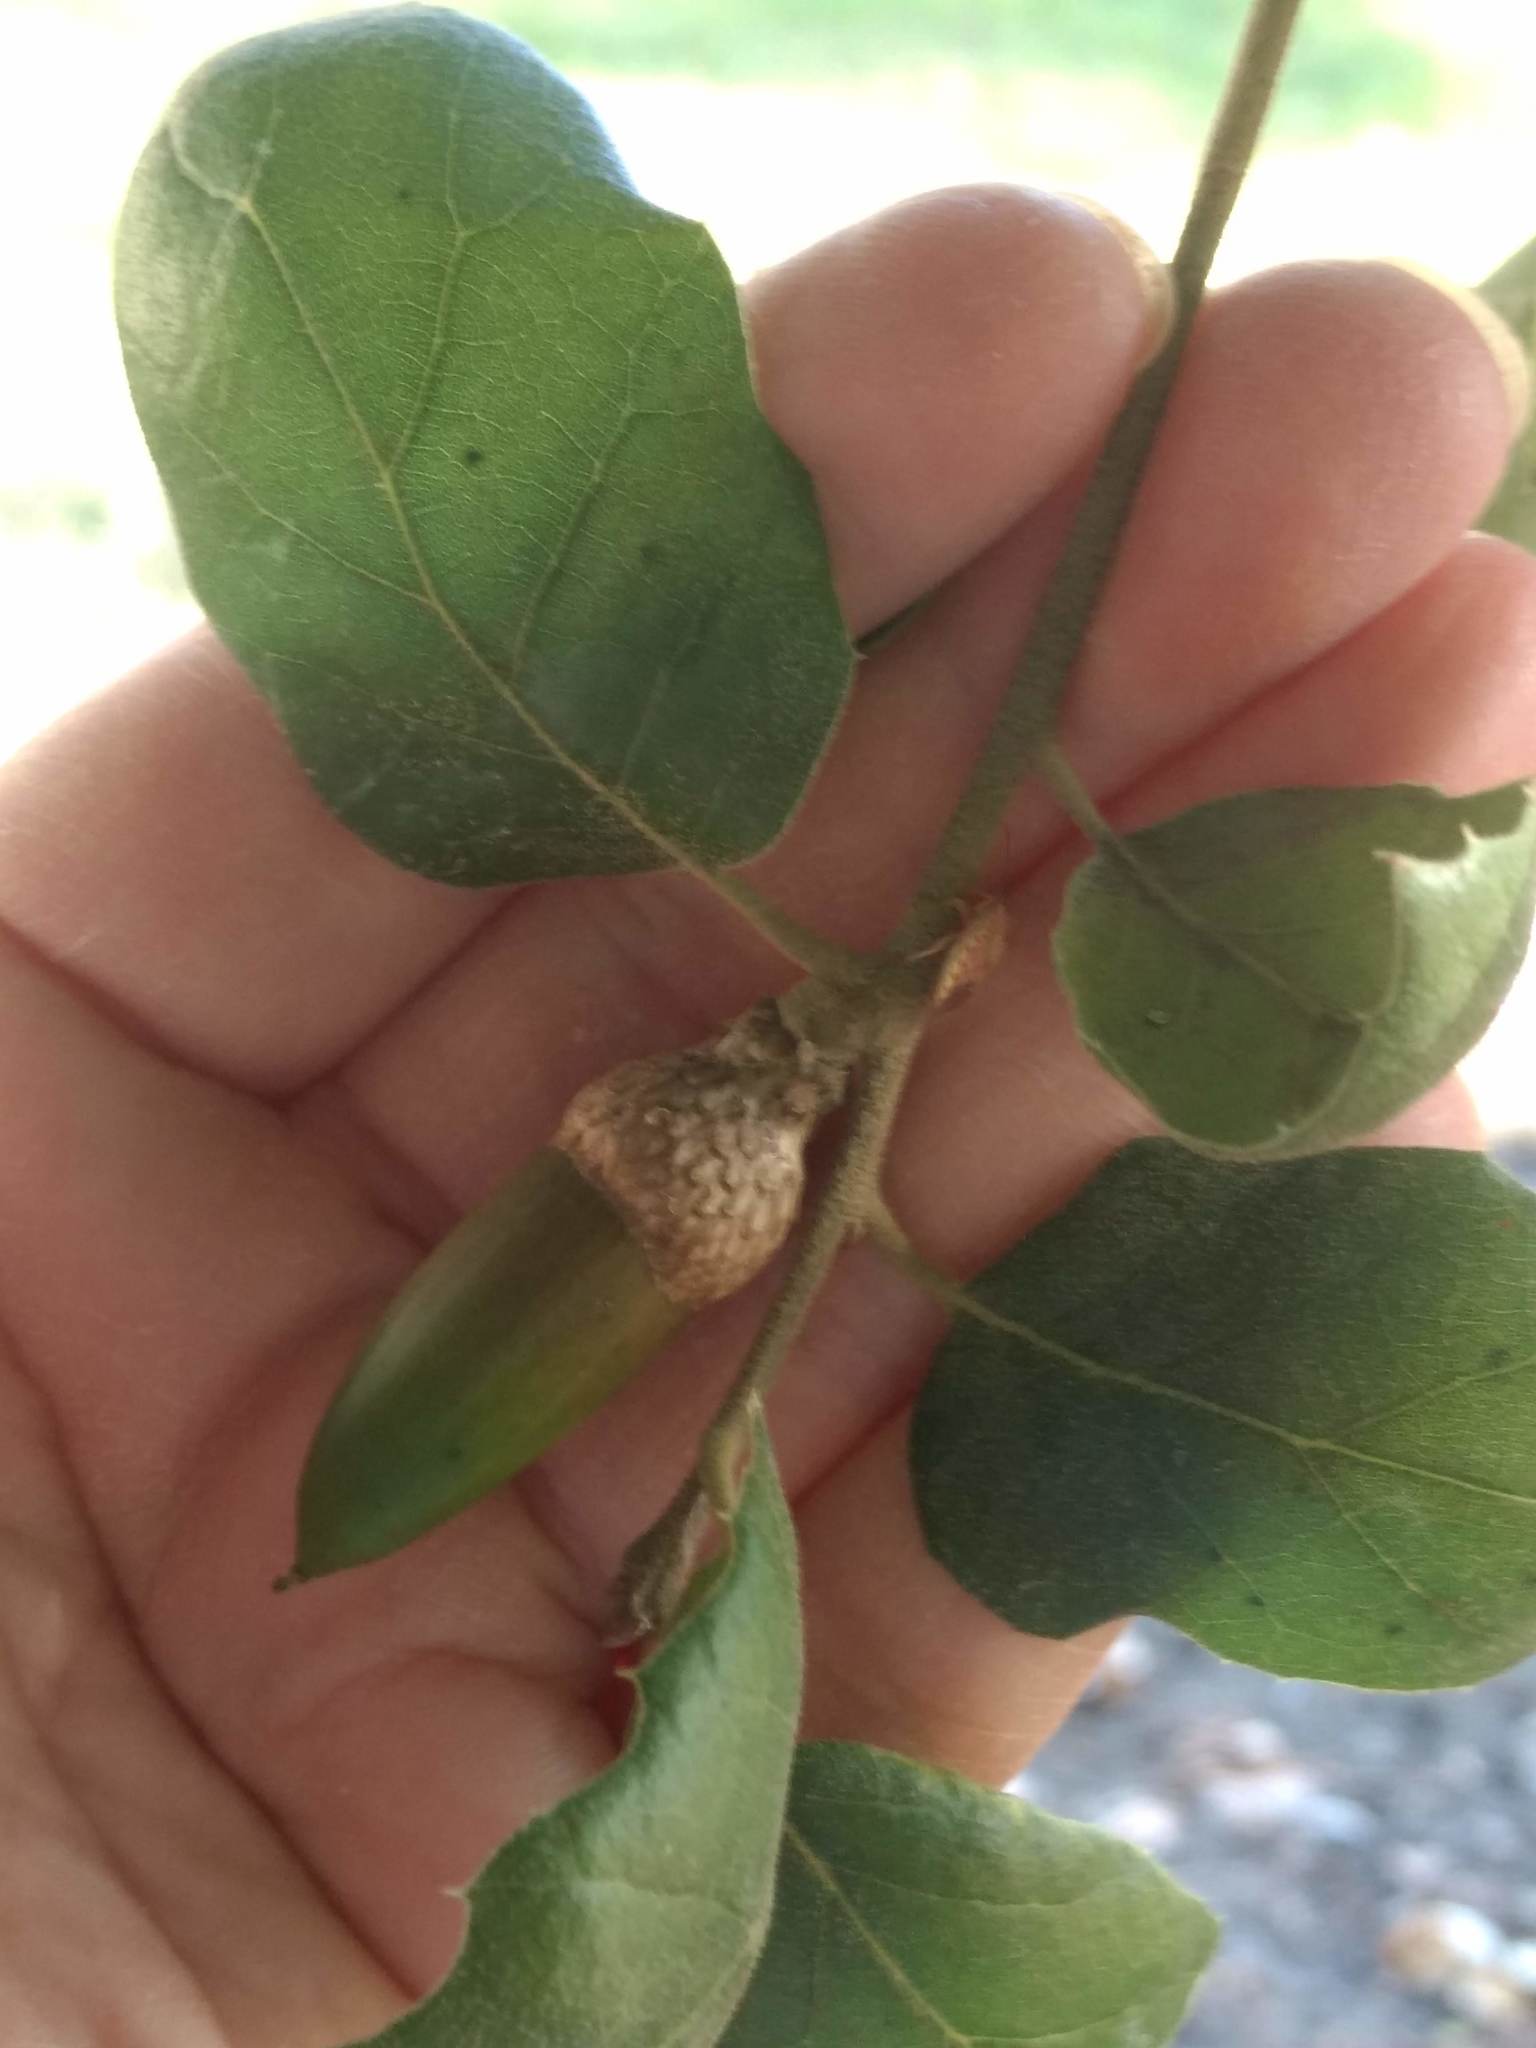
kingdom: Animalia
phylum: Arthropoda
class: Insecta
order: Hymenoptera
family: Cynipidae
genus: Dryocosmus
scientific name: Dryocosmus
